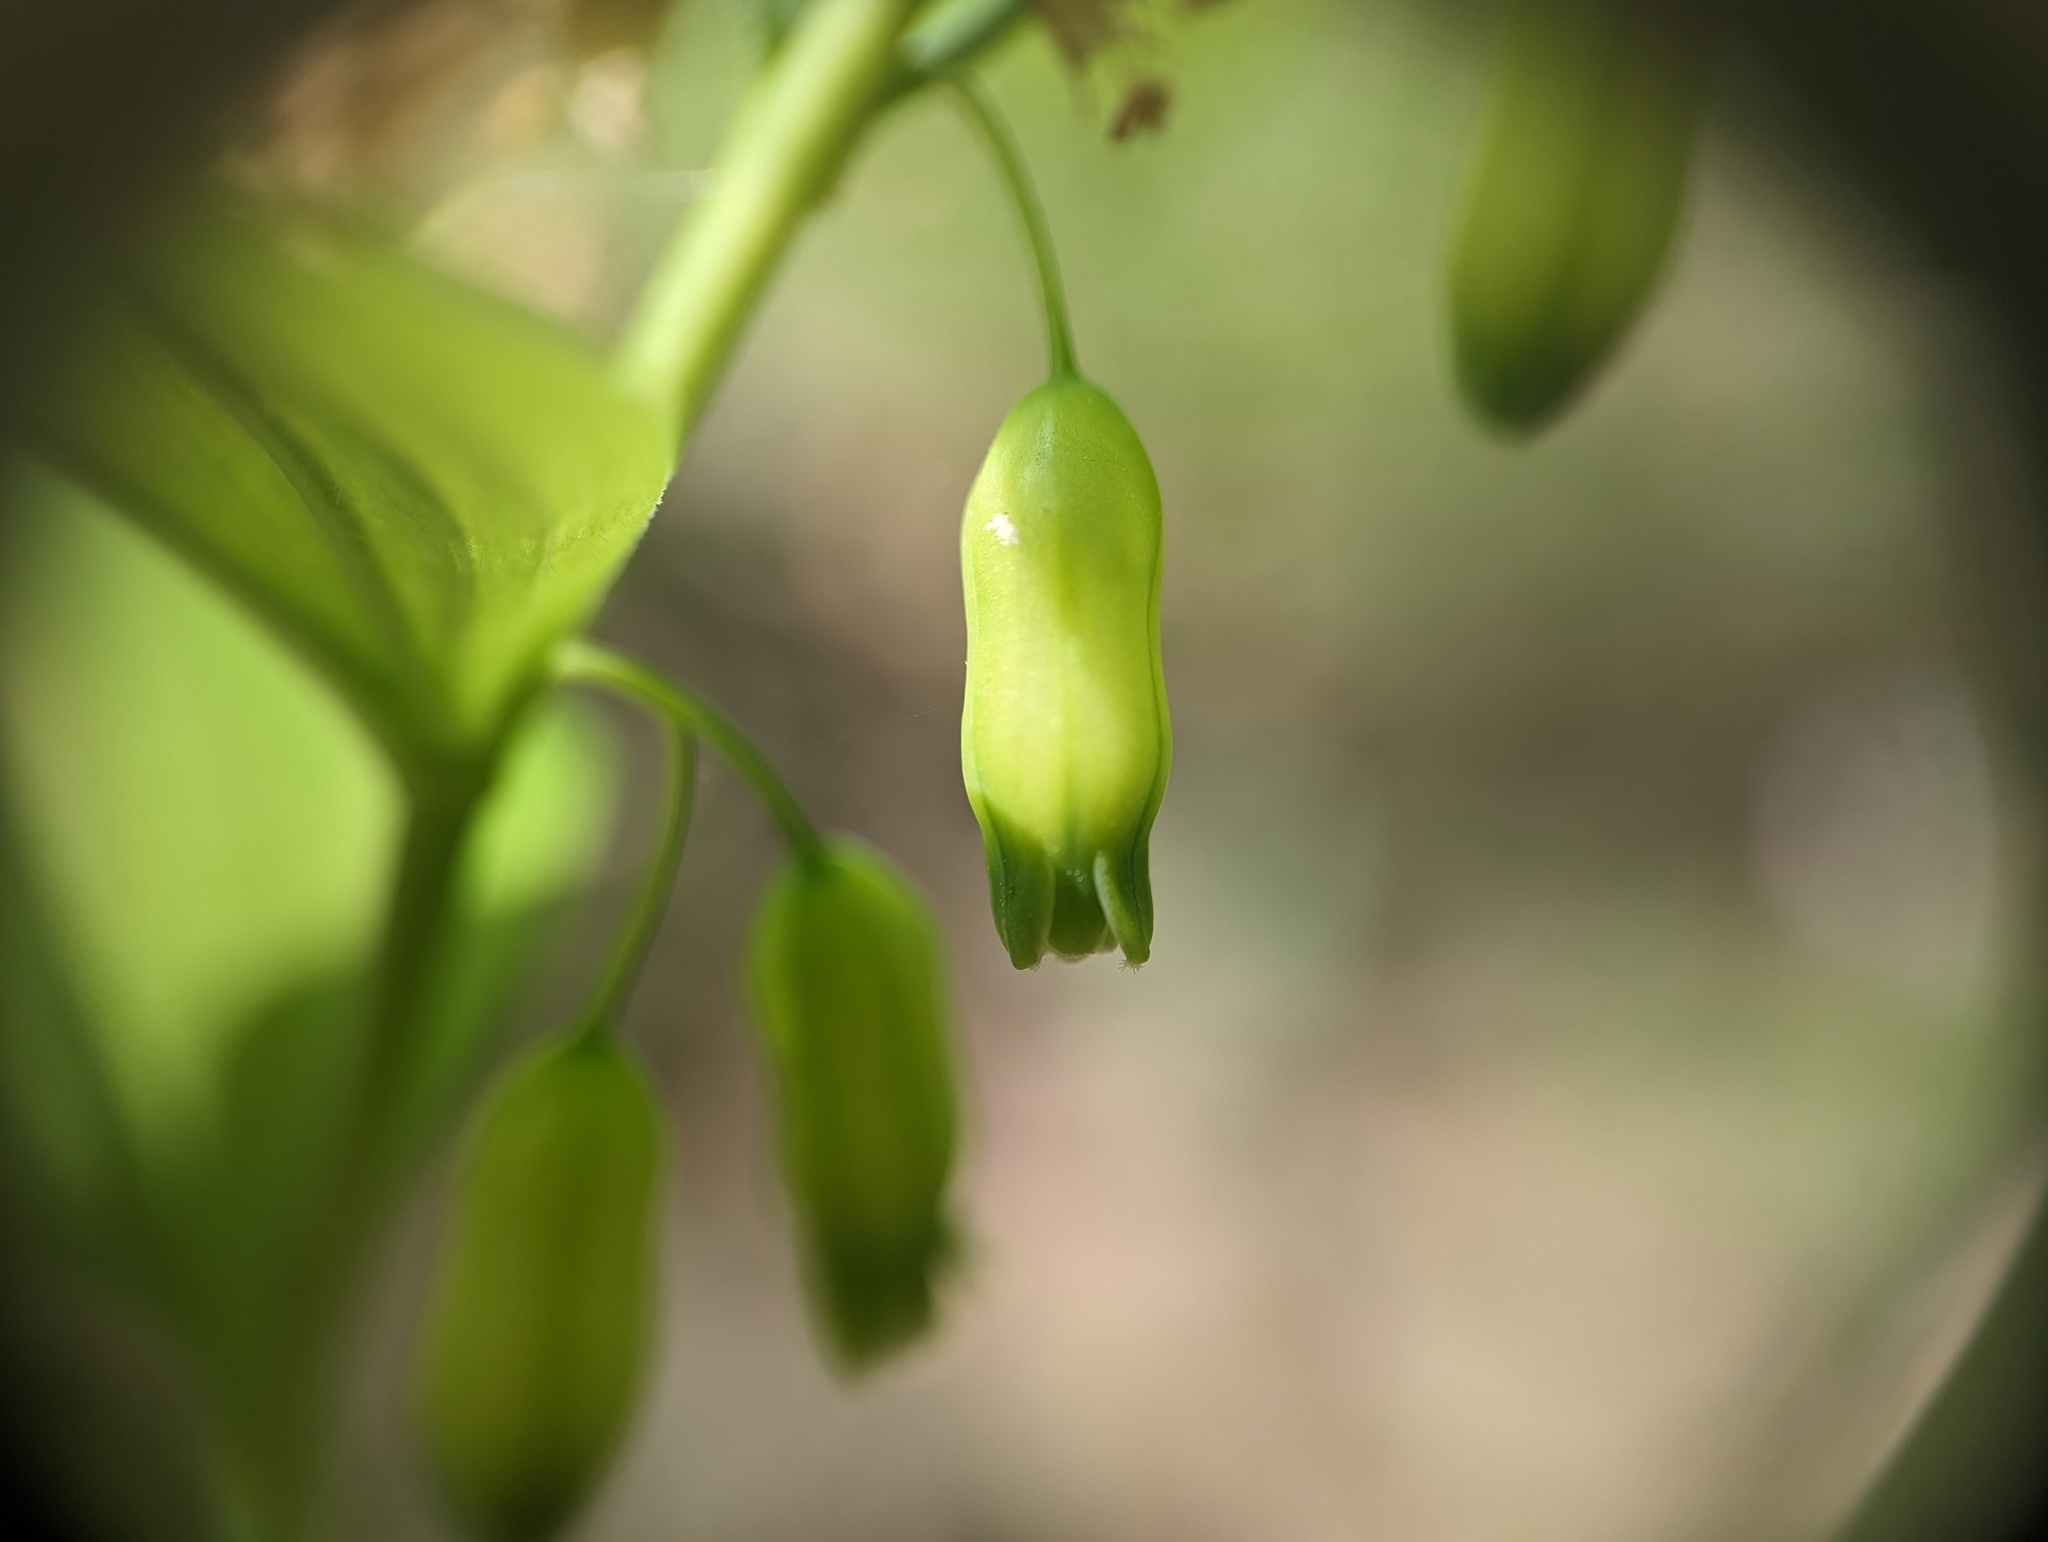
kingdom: Plantae
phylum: Tracheophyta
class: Liliopsida
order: Asparagales
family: Asparagaceae
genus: Polygonatum
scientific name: Polygonatum pubescens
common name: Downy solomon's seal
